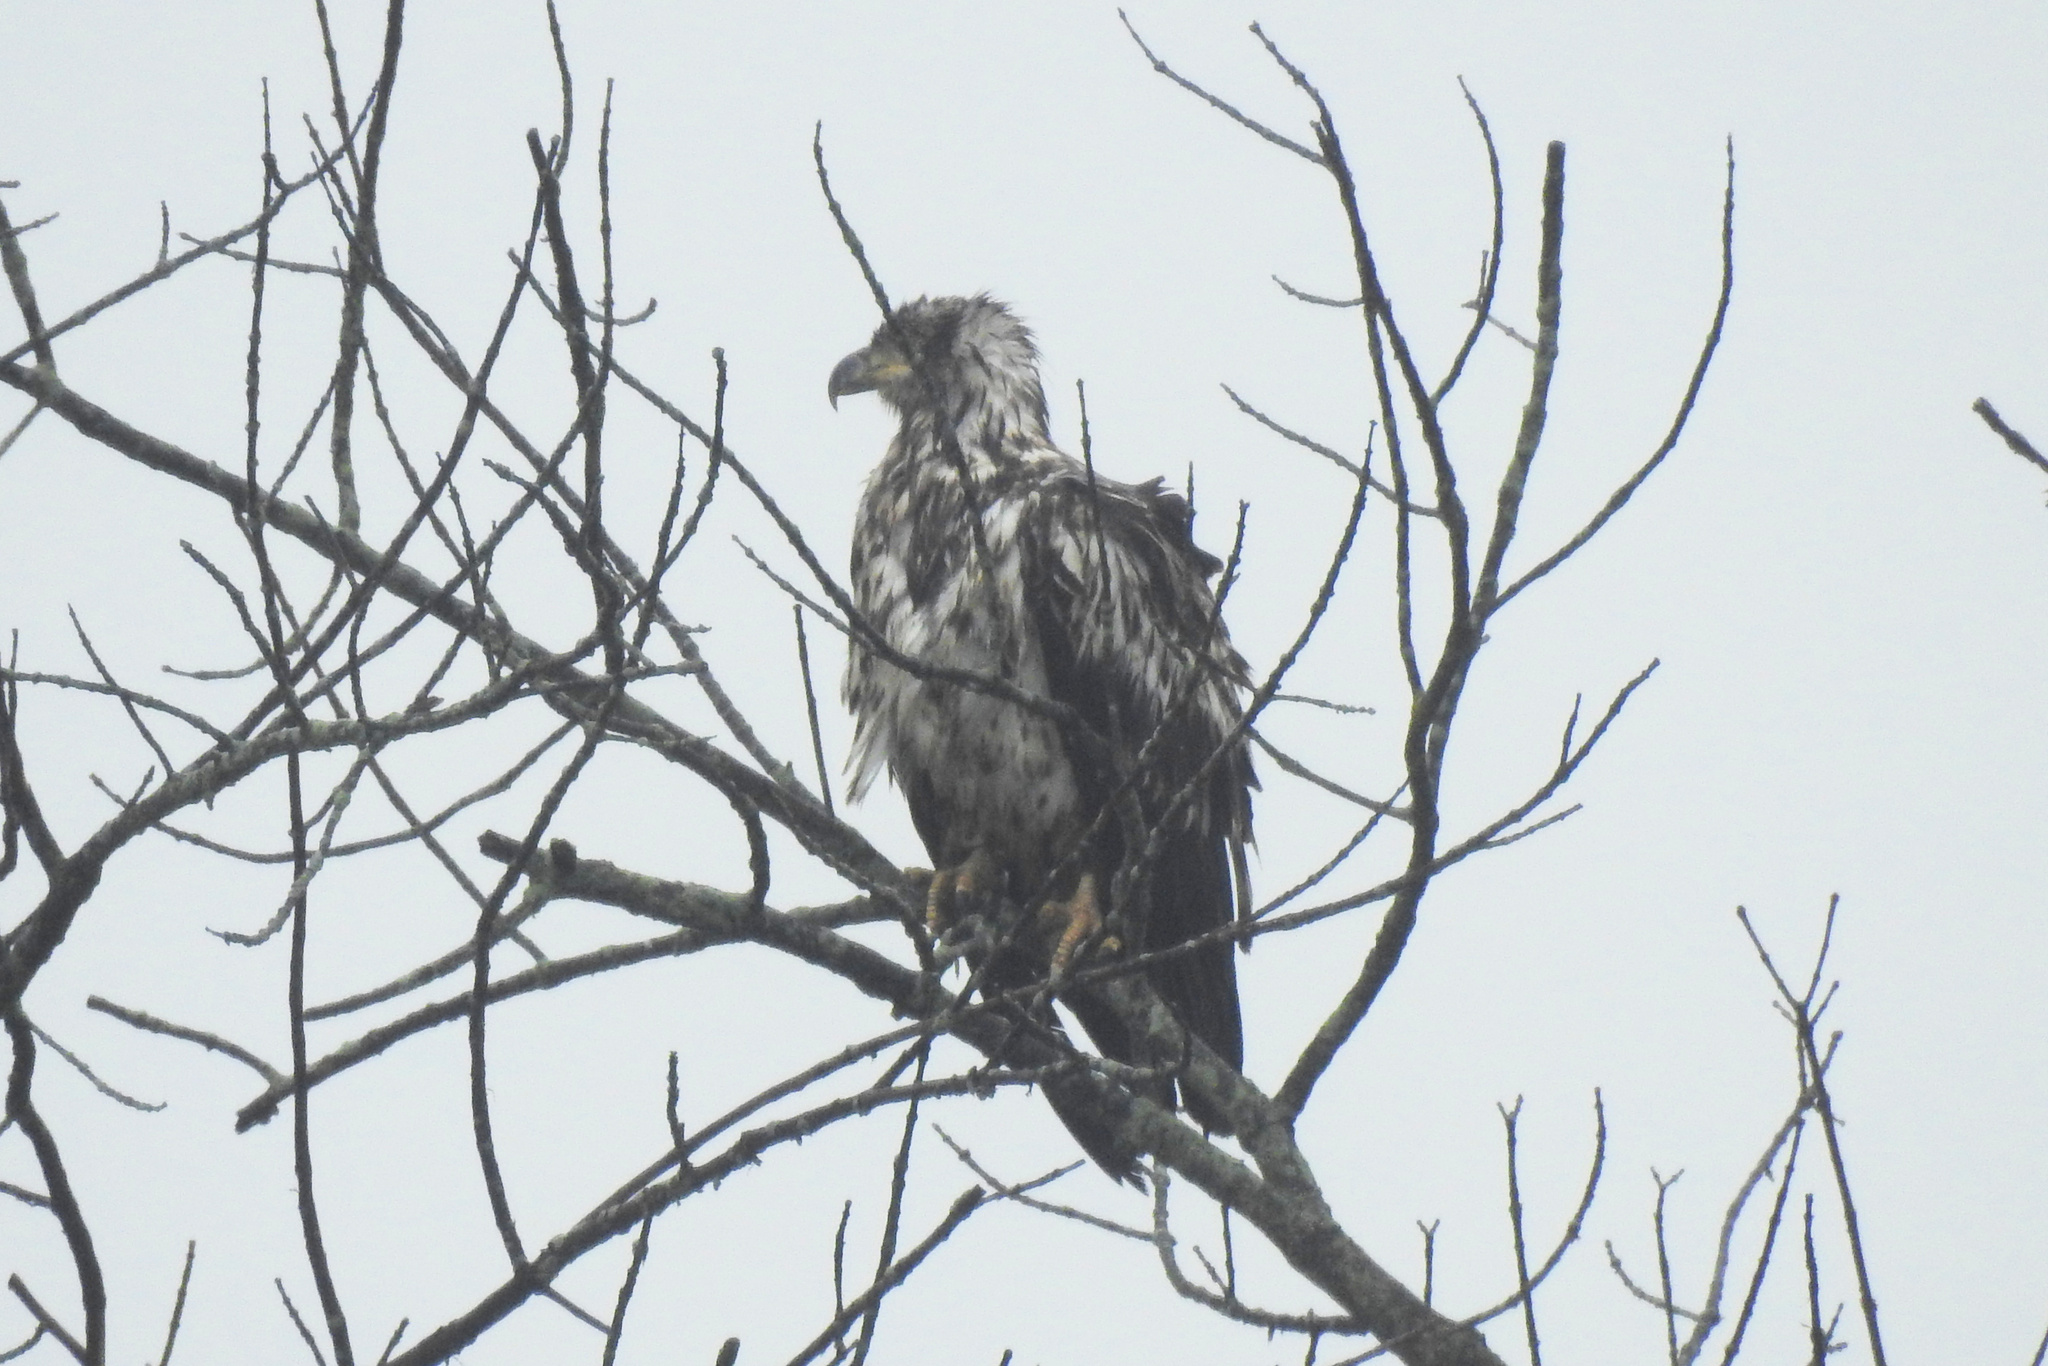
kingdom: Animalia
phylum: Chordata
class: Aves
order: Accipitriformes
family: Accipitridae
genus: Haliaeetus
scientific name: Haliaeetus leucocephalus
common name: Bald eagle
